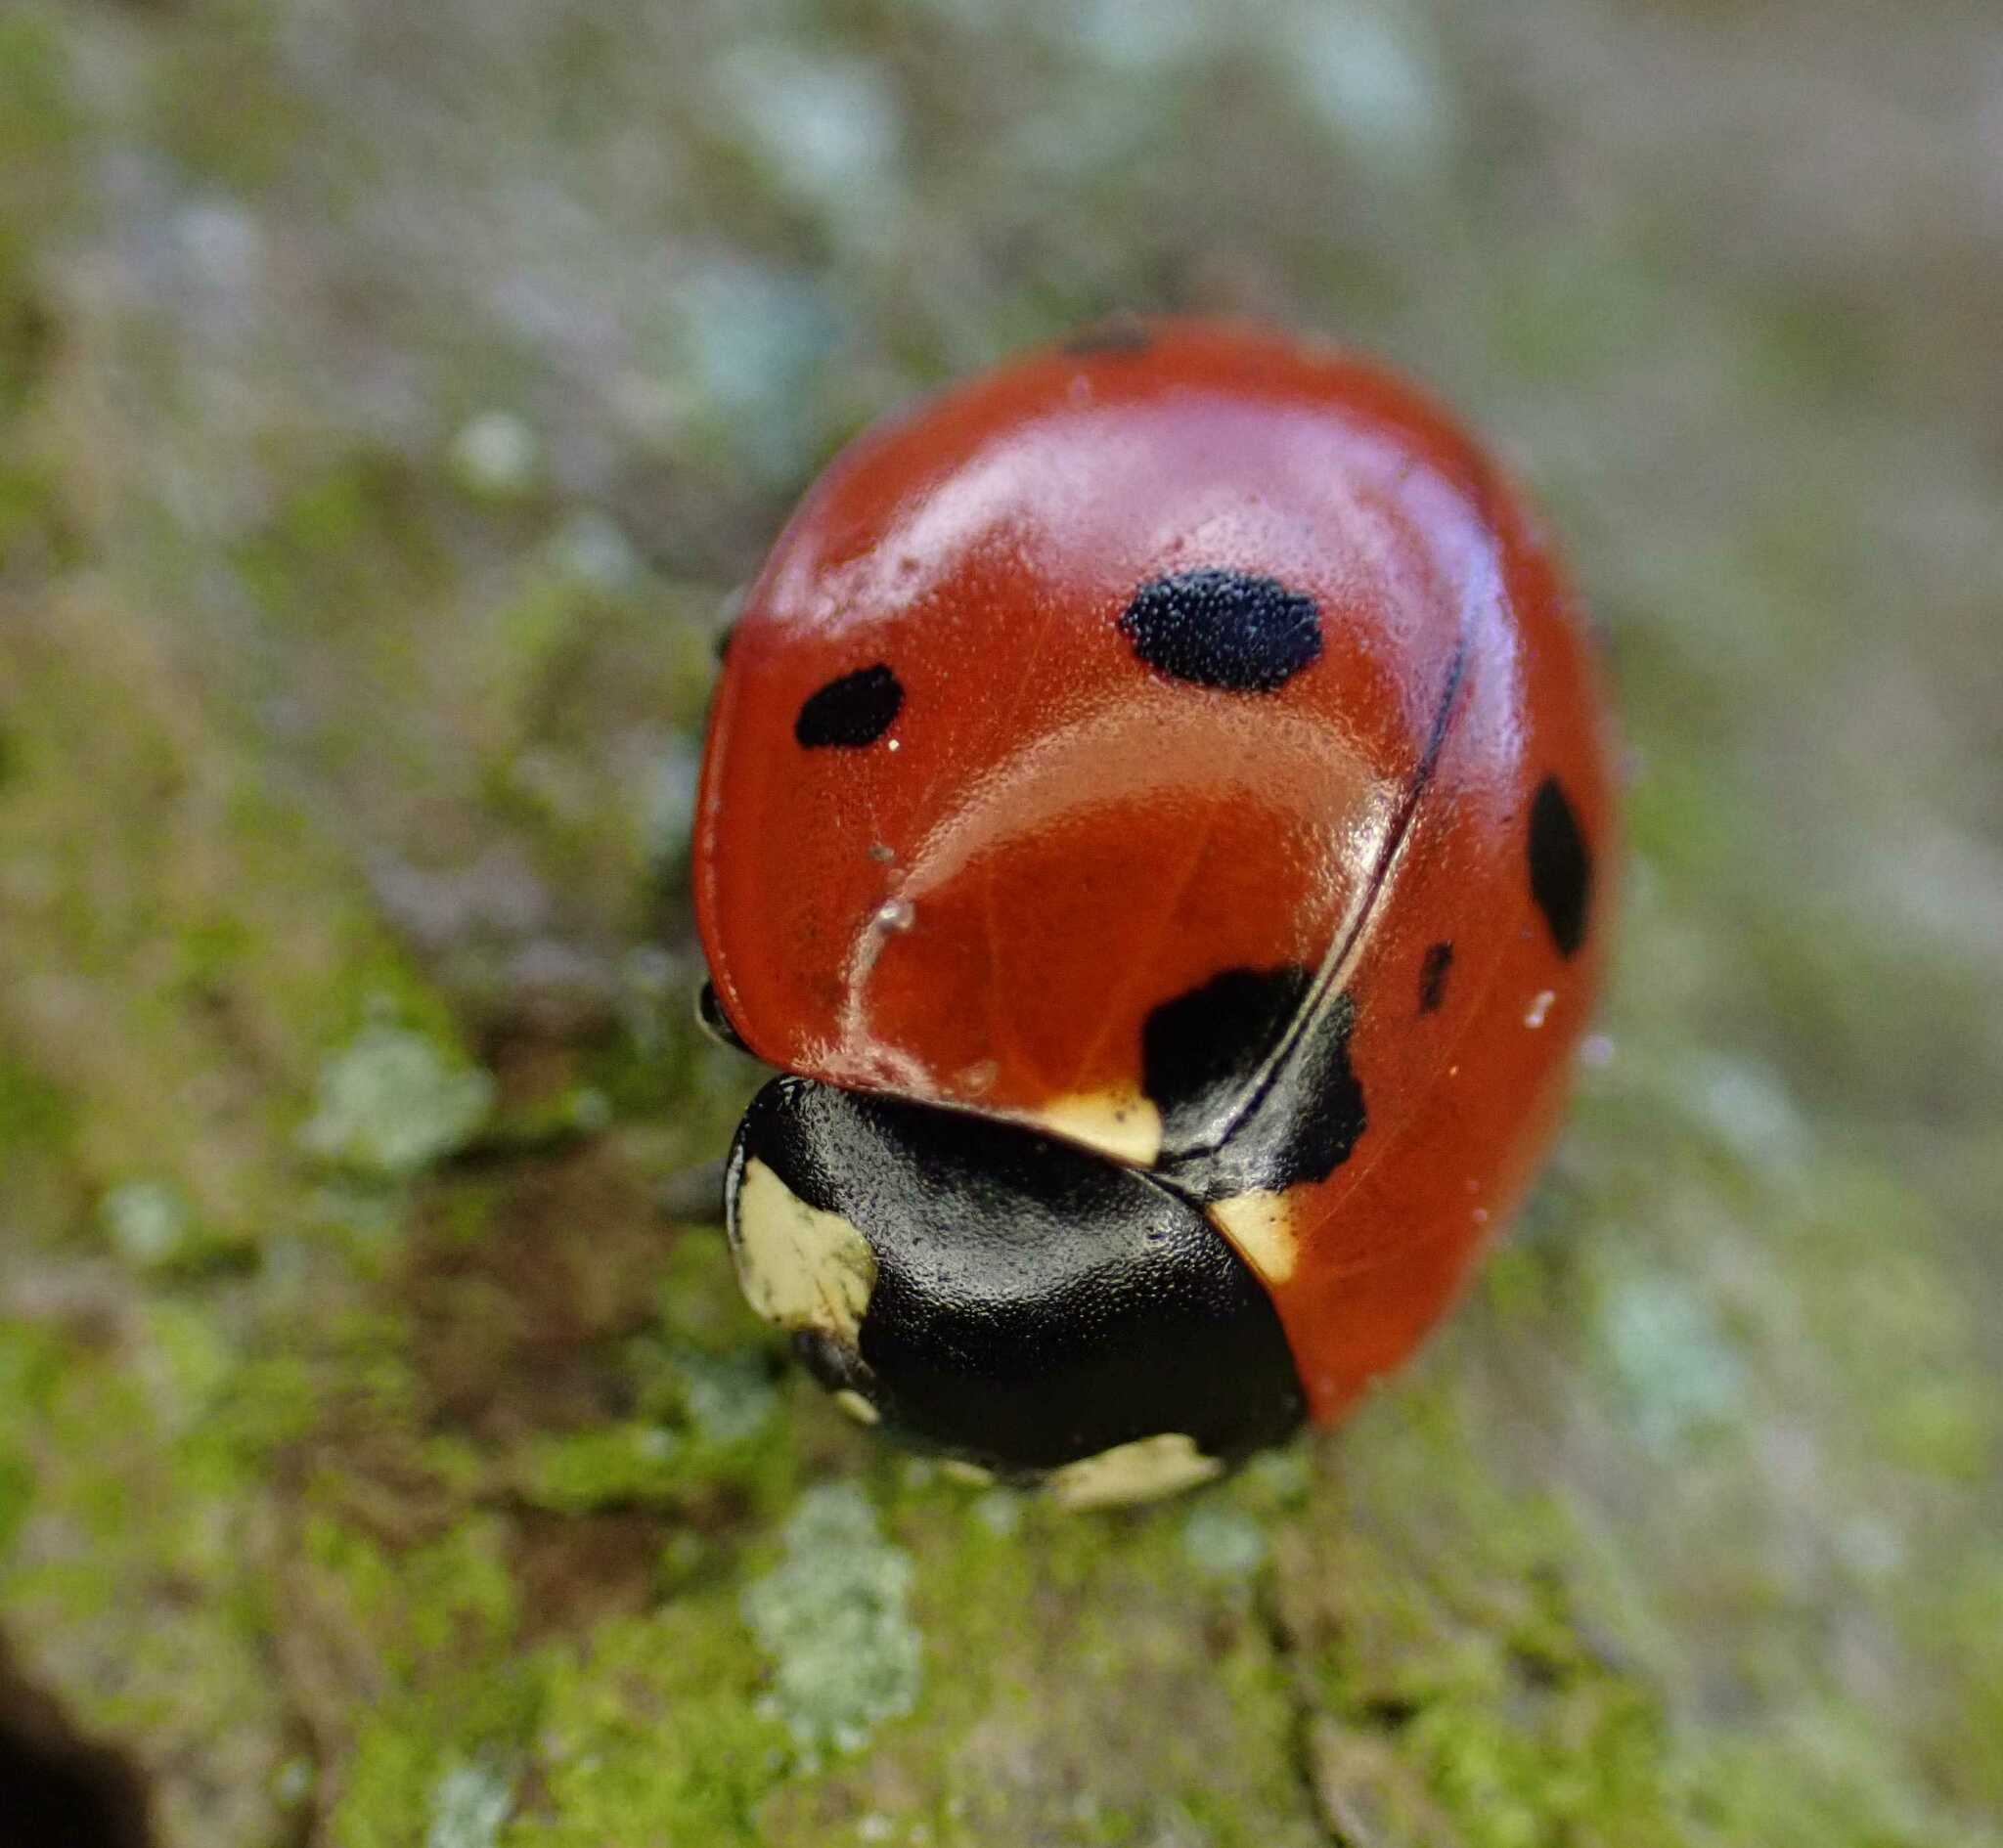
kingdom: Animalia
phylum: Arthropoda
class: Insecta
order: Coleoptera
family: Coccinellidae
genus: Coccinella
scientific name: Coccinella septempunctata
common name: Sevenspotted lady beetle
